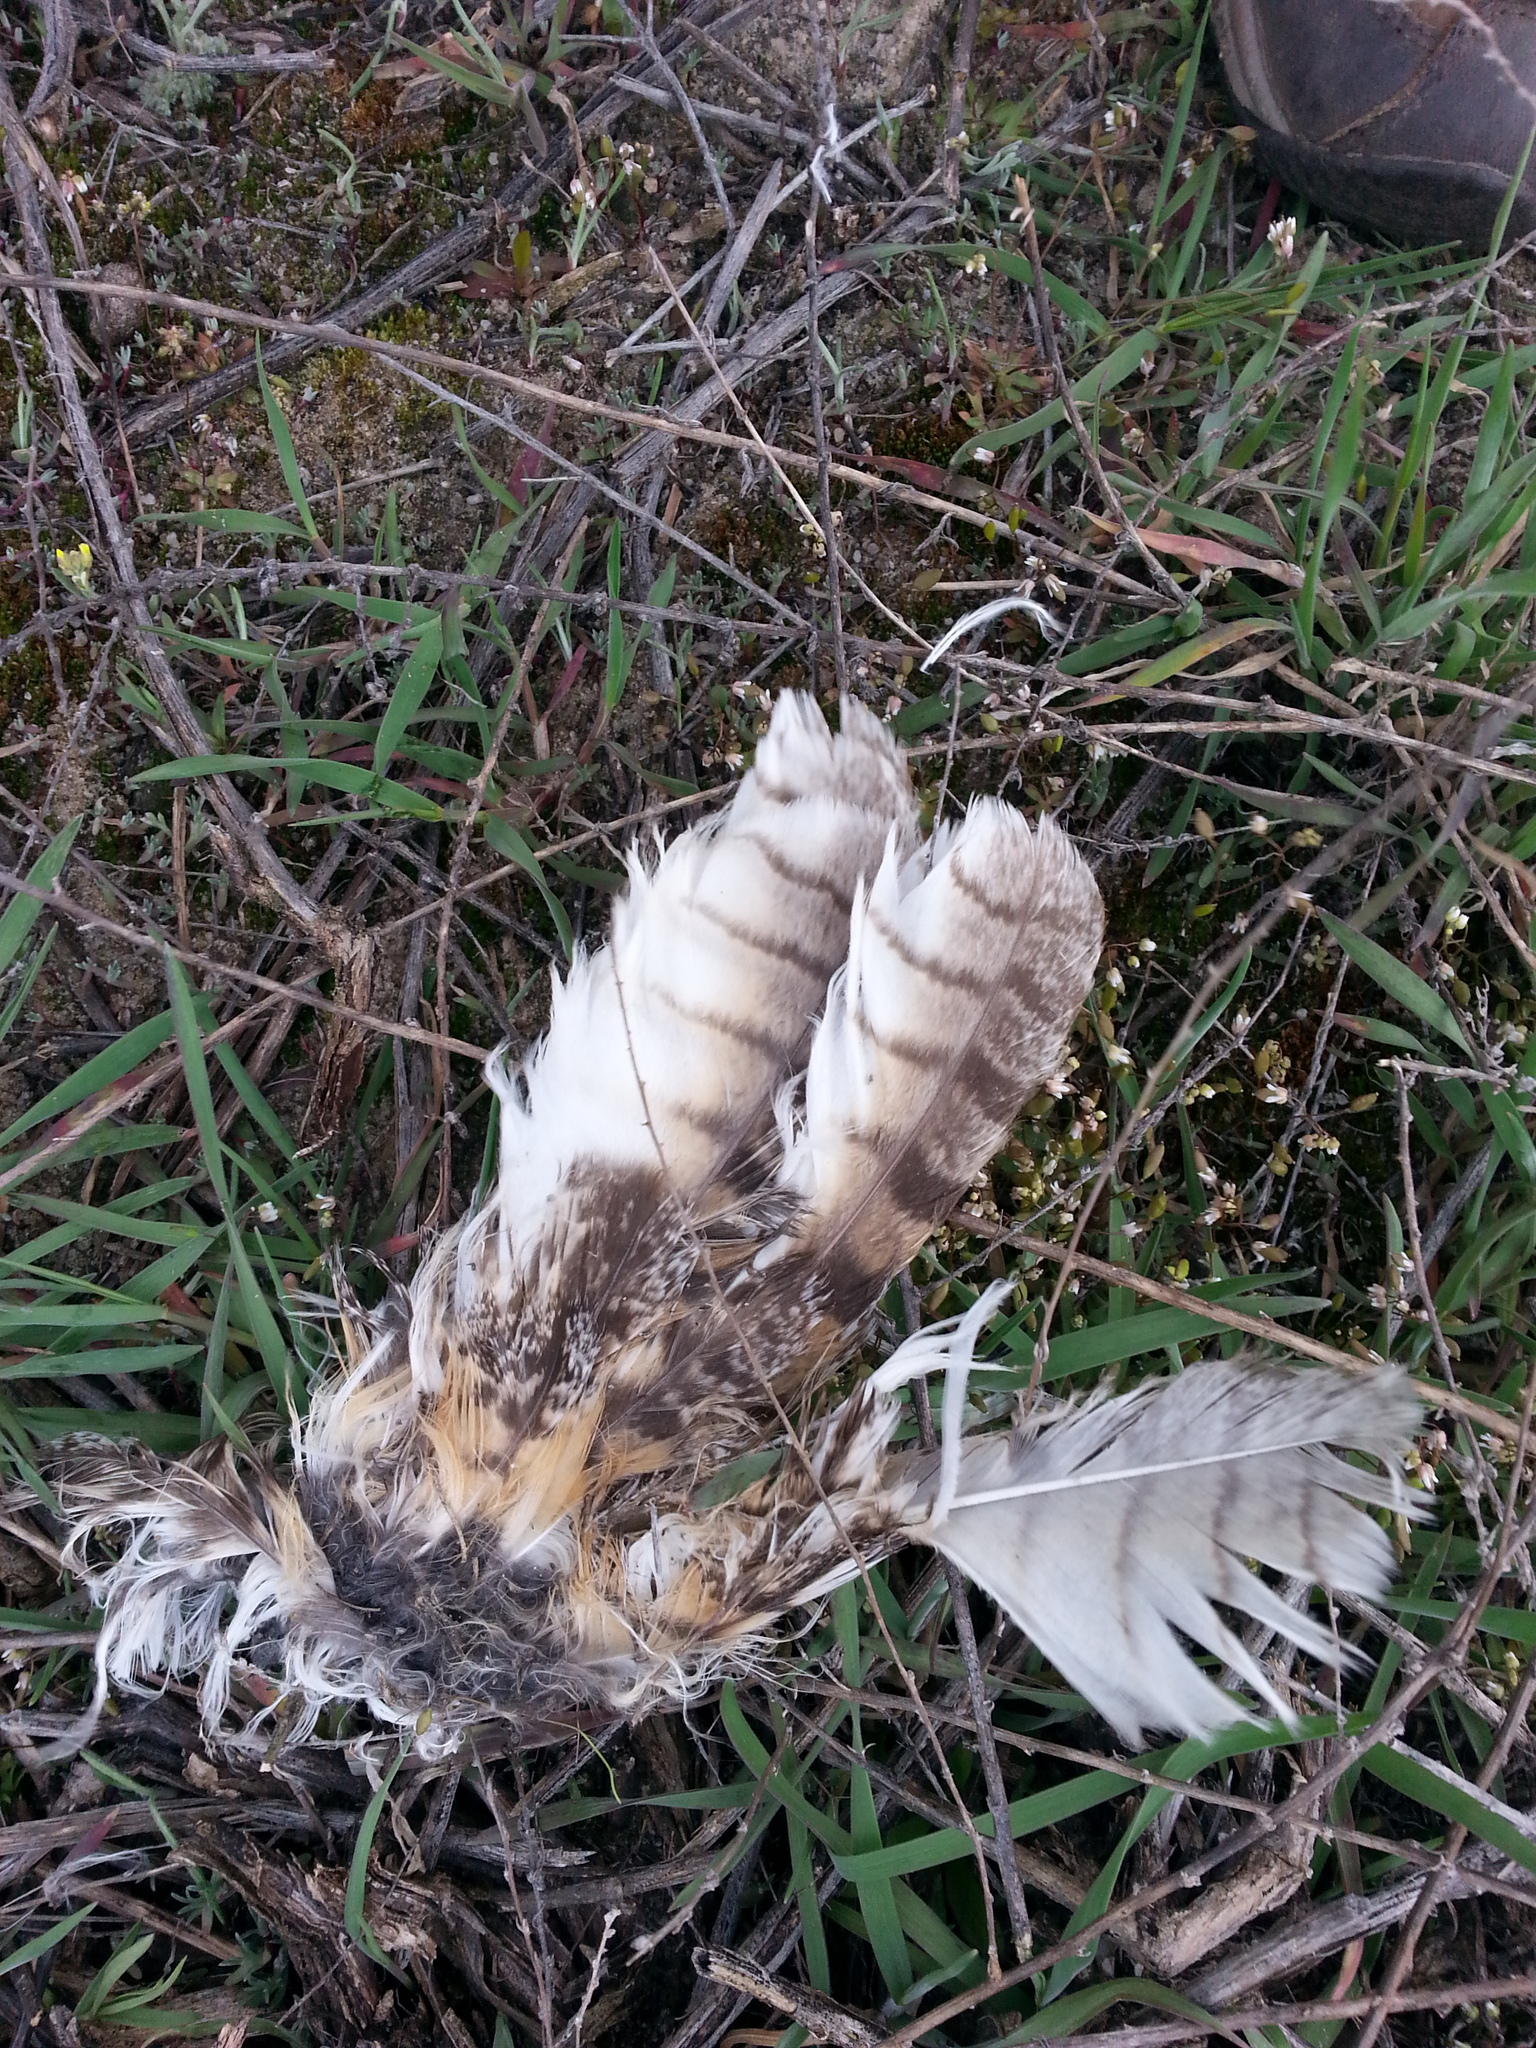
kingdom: Animalia
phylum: Chordata
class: Aves
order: Strigiformes
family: Strigidae
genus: Asio
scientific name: Asio otus
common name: Long-eared owl
